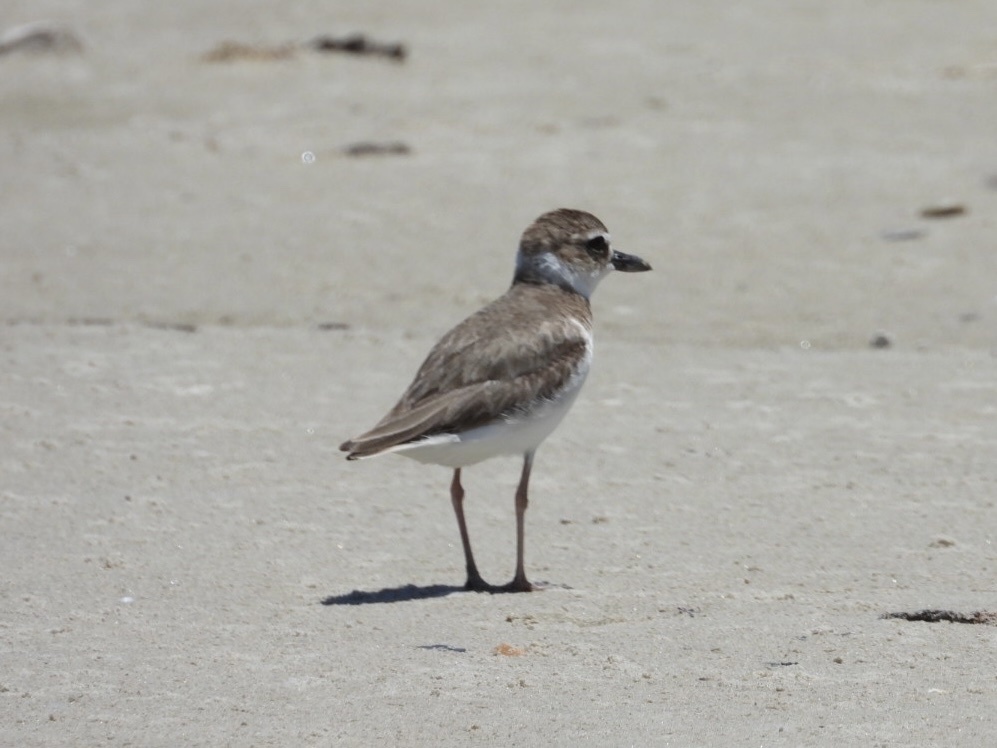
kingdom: Animalia
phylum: Chordata
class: Aves
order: Charadriiformes
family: Charadriidae
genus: Anarhynchus
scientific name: Anarhynchus
